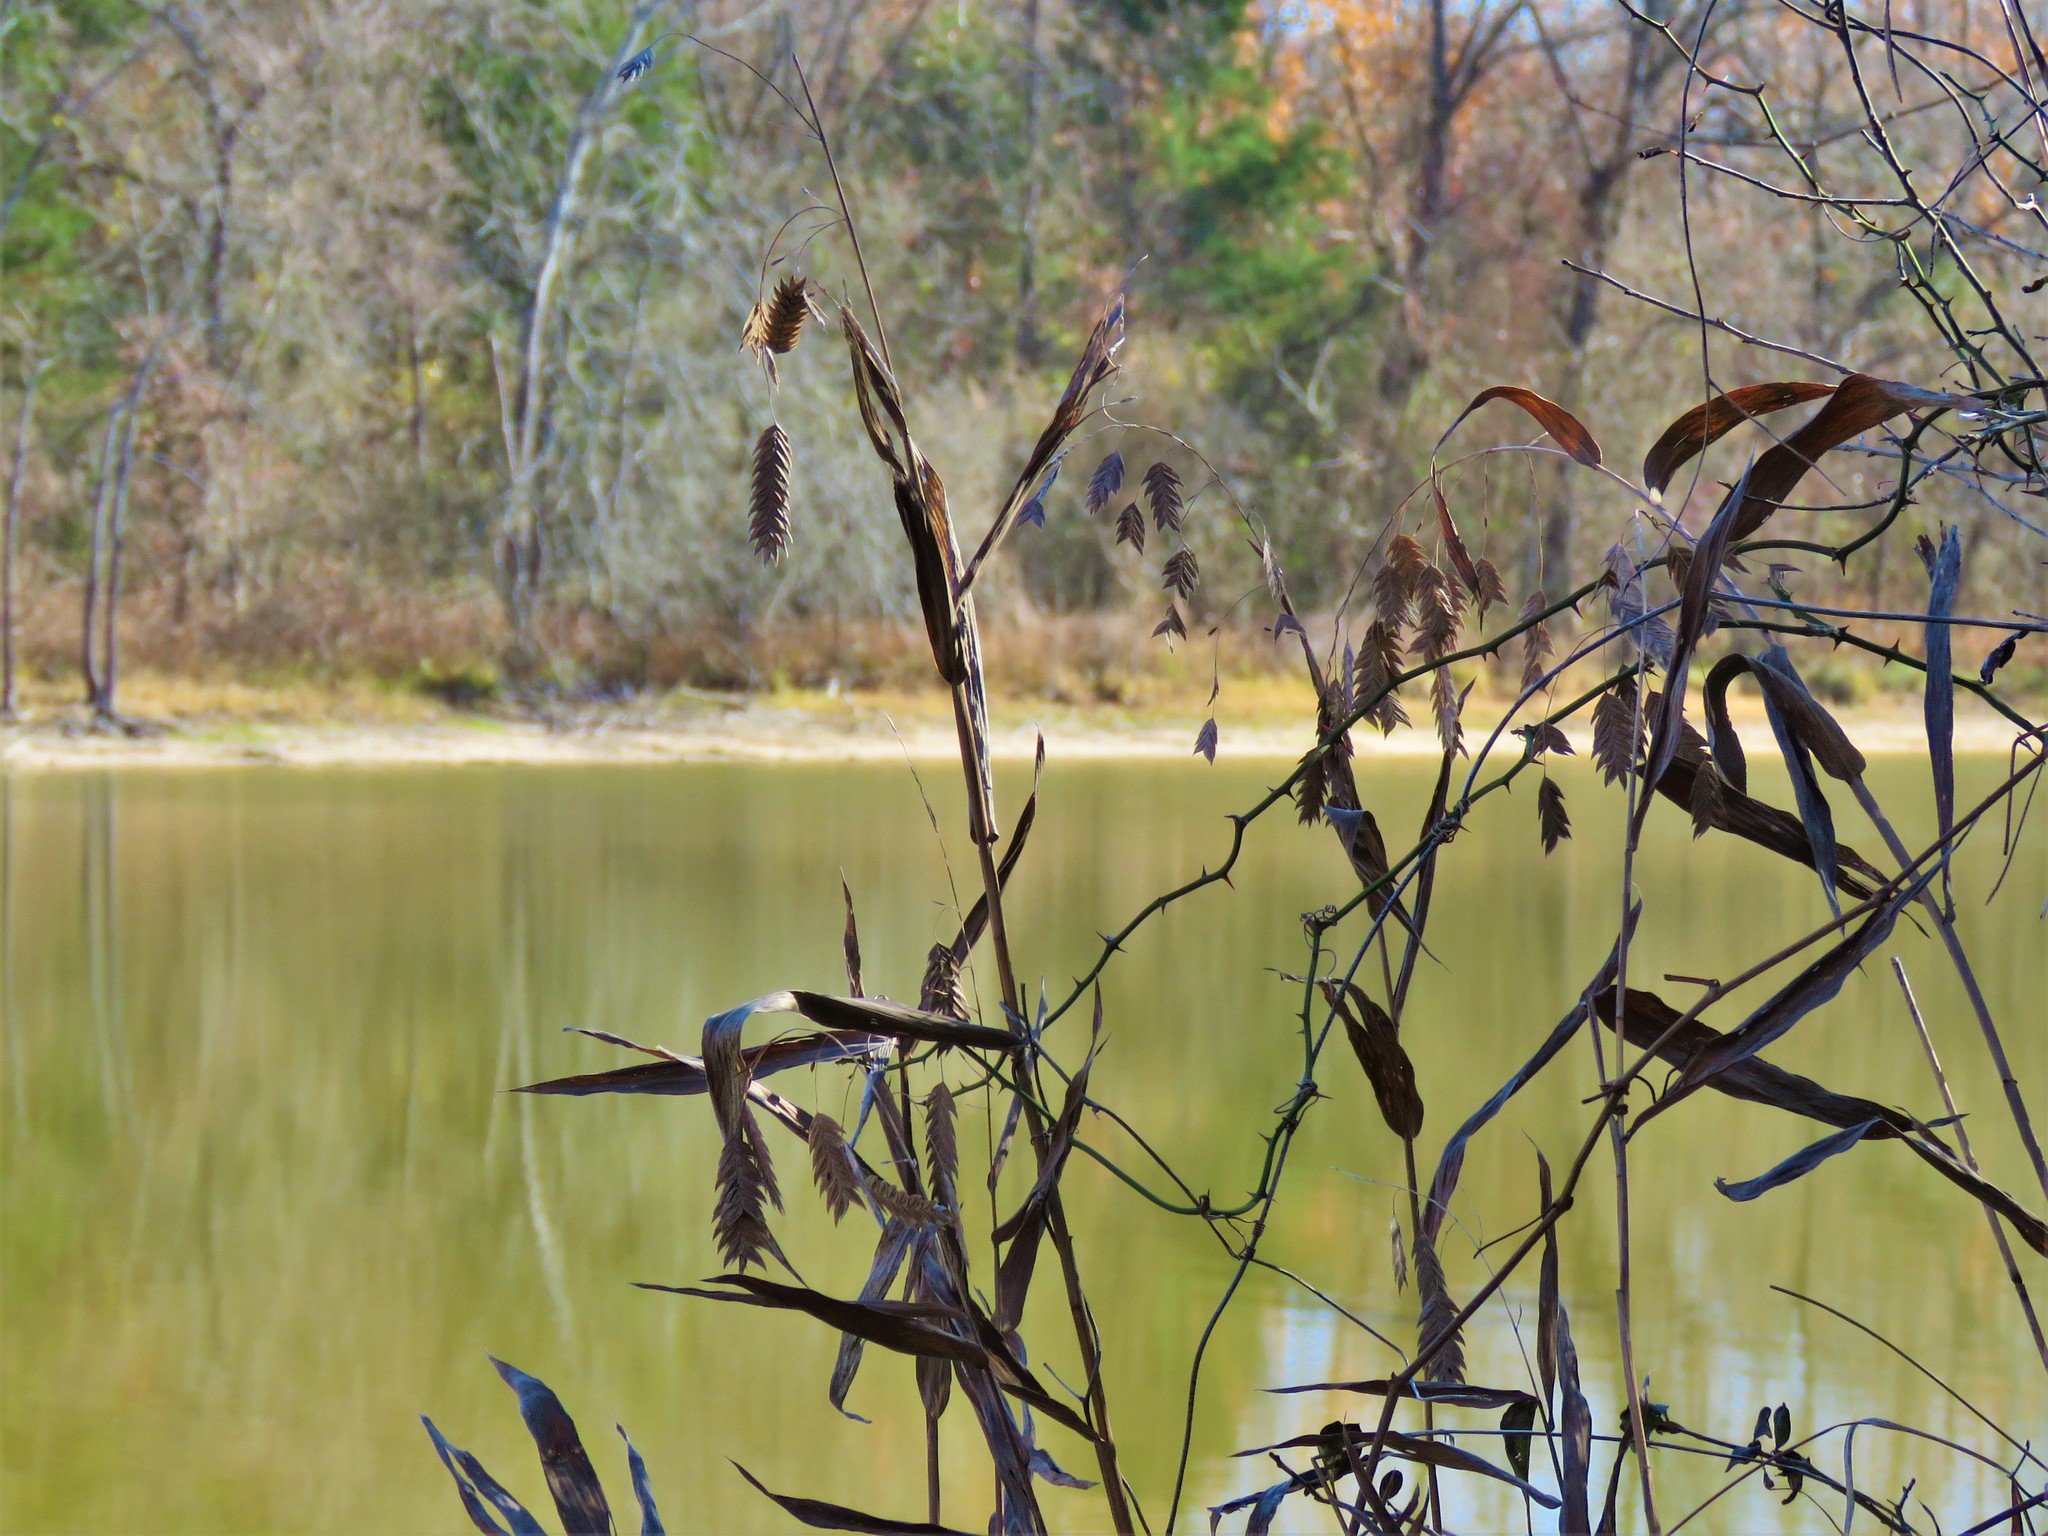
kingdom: Plantae
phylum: Tracheophyta
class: Liliopsida
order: Poales
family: Poaceae
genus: Chasmanthium
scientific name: Chasmanthium latifolium
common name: Broad-leaved chasmanthium
